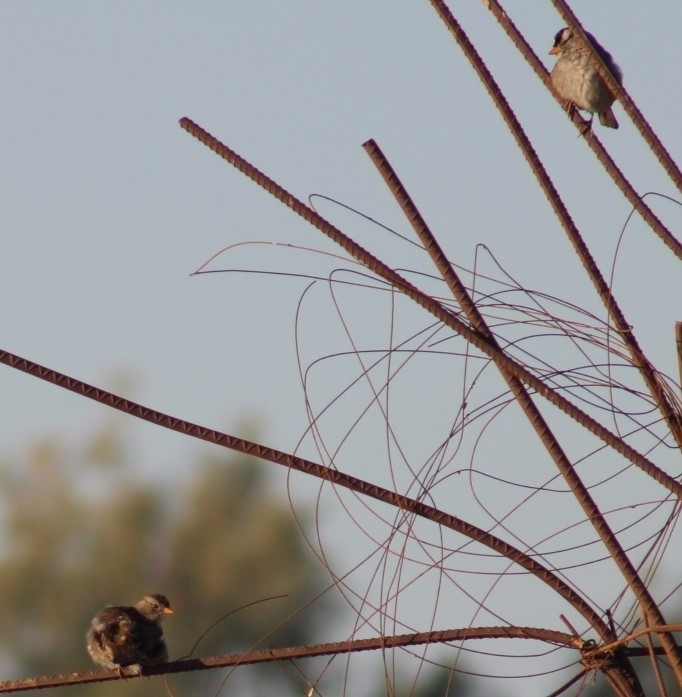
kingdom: Animalia
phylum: Chordata
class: Aves
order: Passeriformes
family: Passerellidae
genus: Zonotrichia
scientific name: Zonotrichia leucophrys
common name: White-crowned sparrow
